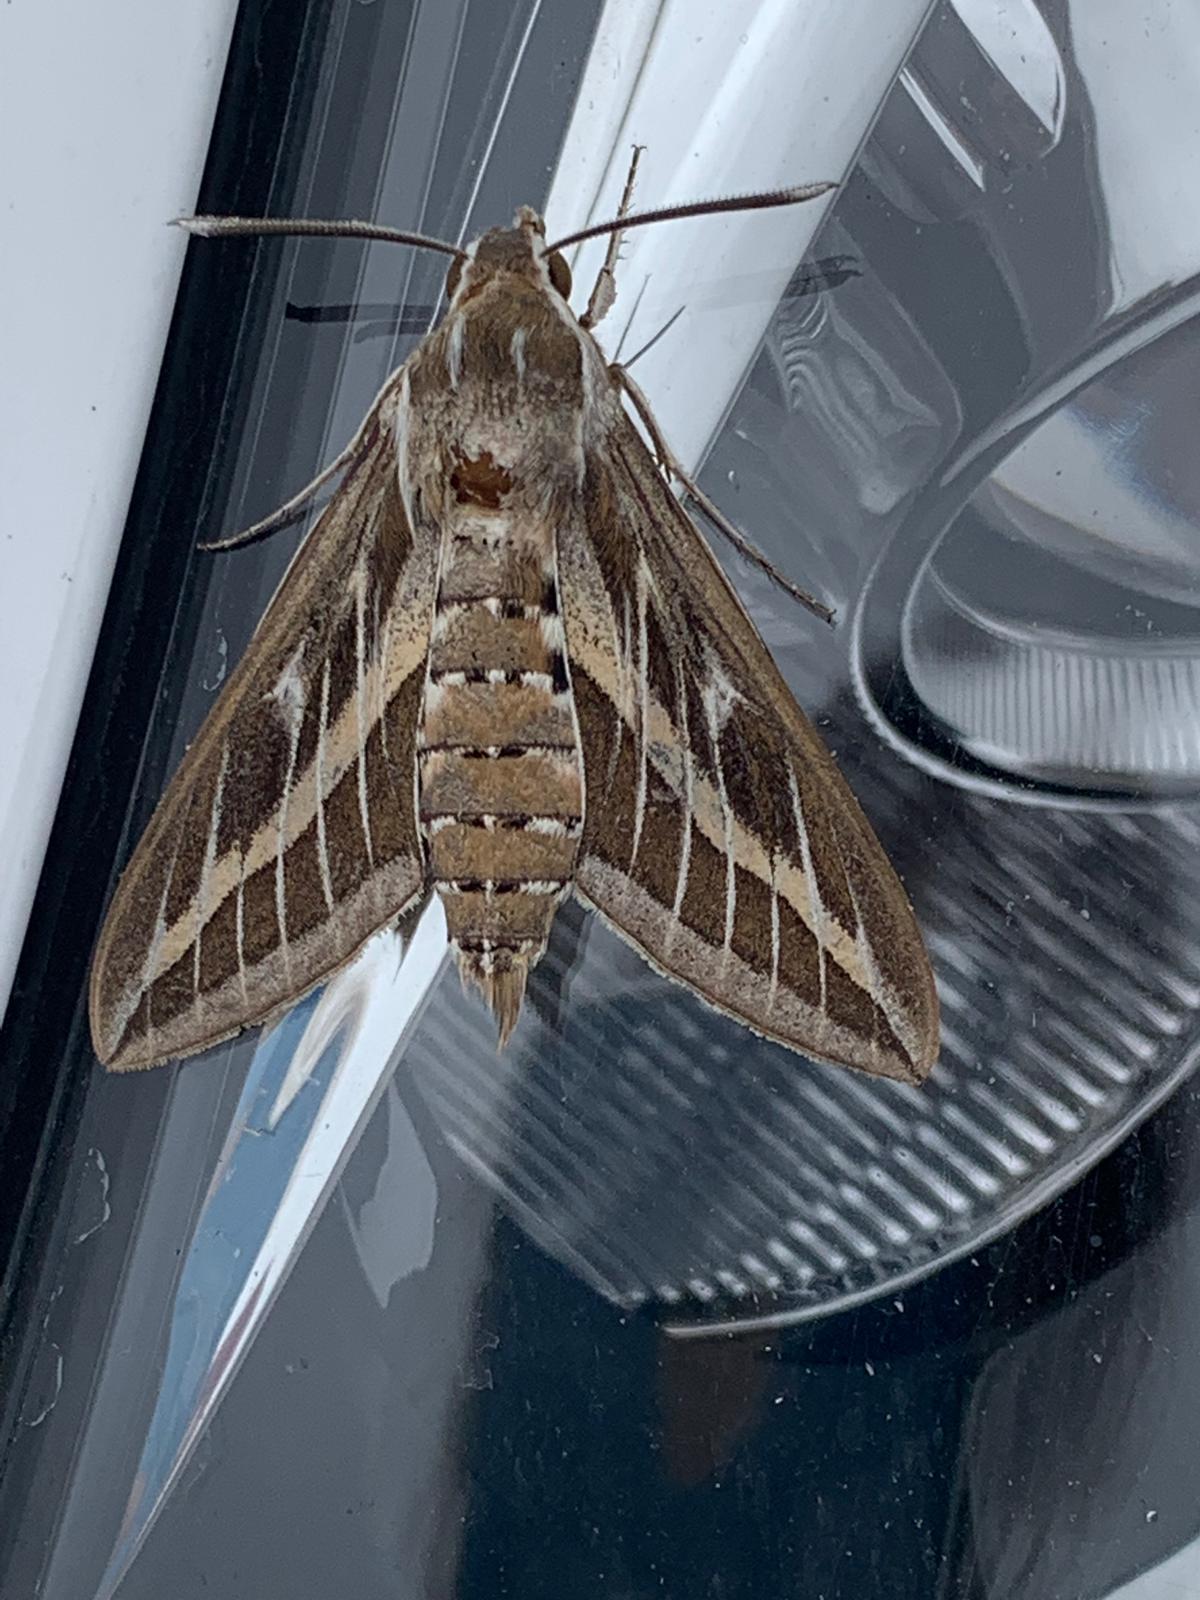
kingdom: Animalia
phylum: Arthropoda
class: Insecta
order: Lepidoptera
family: Sphingidae
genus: Hyles
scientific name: Hyles livornica
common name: Striped hawk-moth
